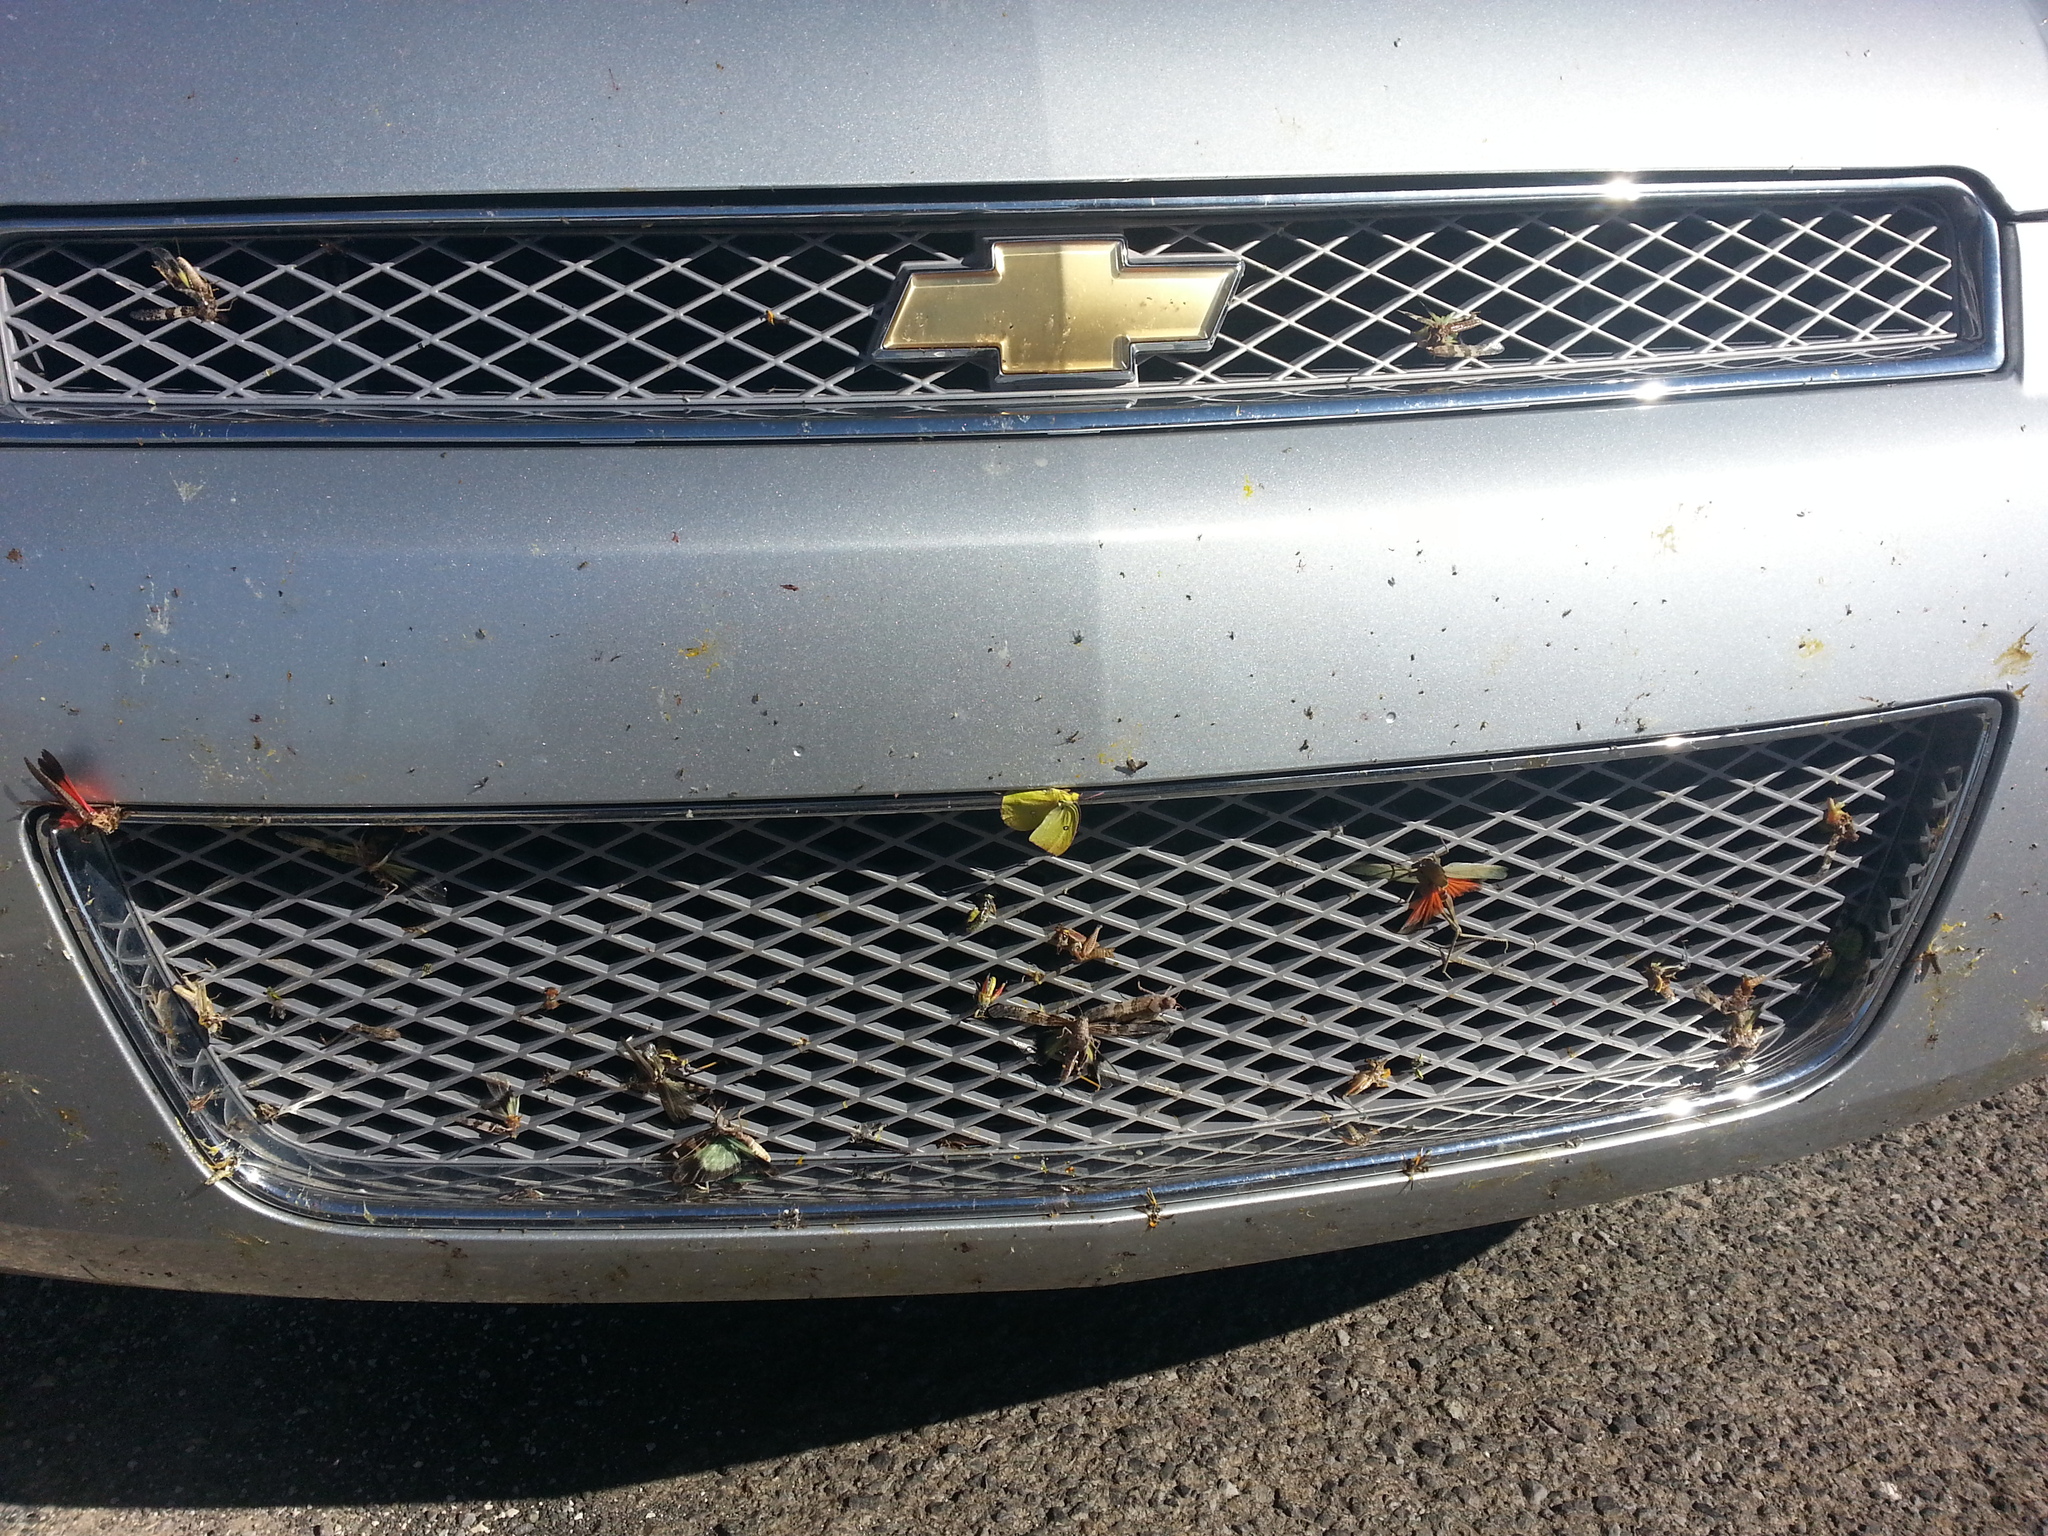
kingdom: Animalia
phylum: Arthropoda
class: Insecta
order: Orthoptera
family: Acrididae
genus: Arphia
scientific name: Arphia pseudo-nietana
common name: Red-winged grasshopper
